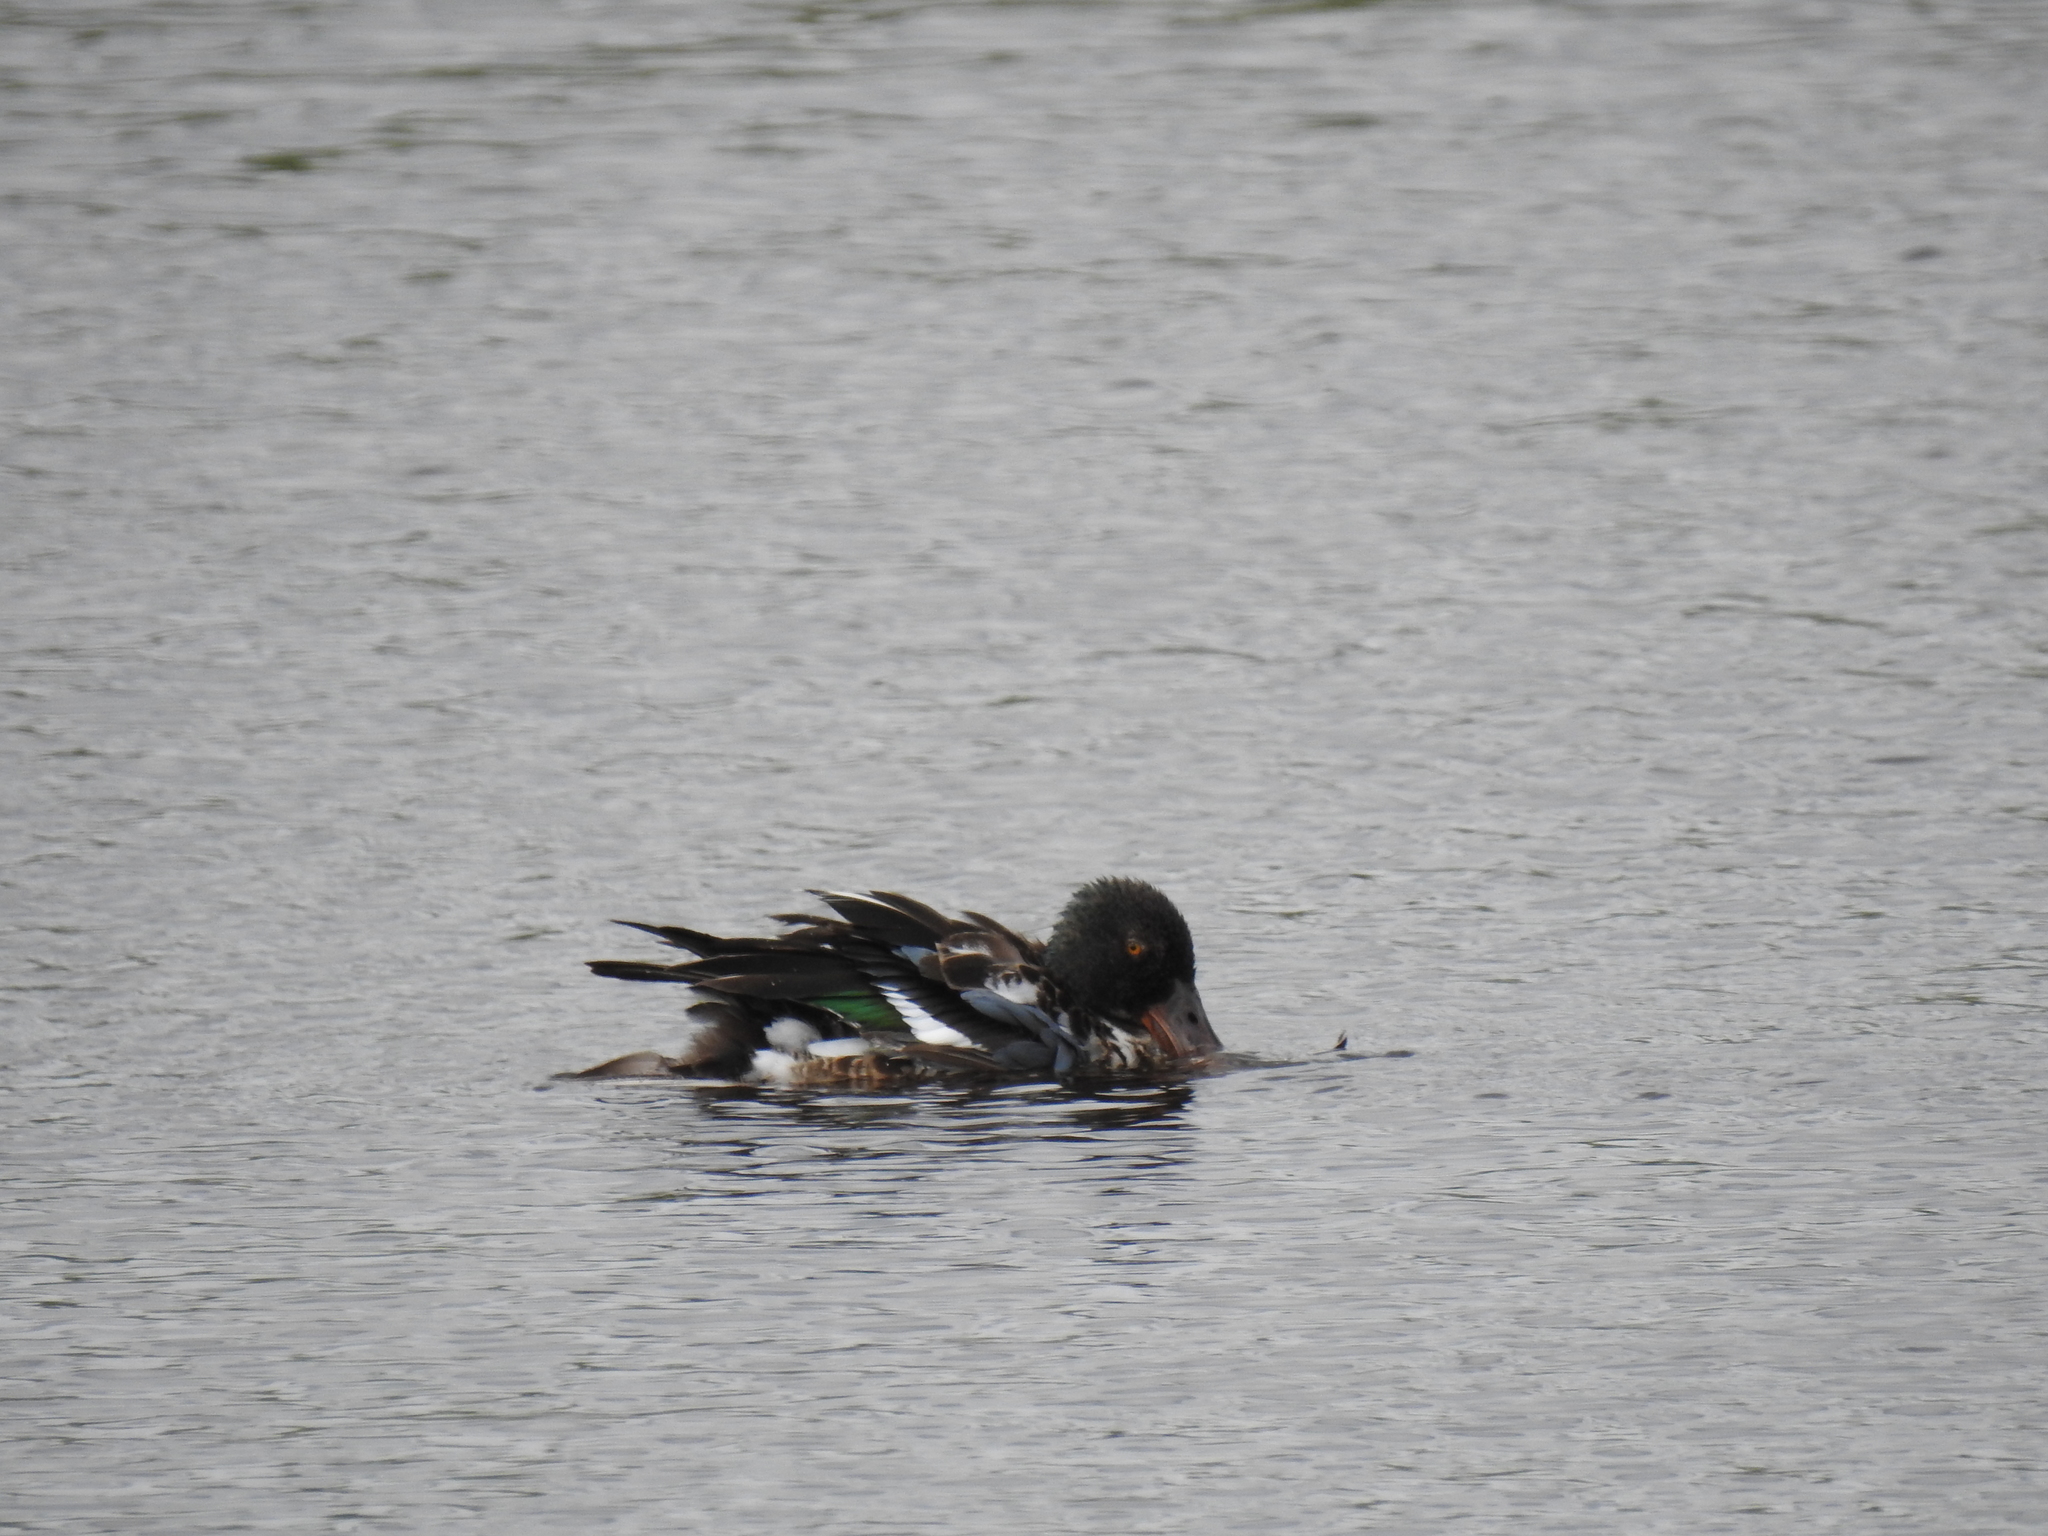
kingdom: Animalia
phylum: Chordata
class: Aves
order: Anseriformes
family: Anatidae
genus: Spatula
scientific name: Spatula clypeata
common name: Northern shoveler
